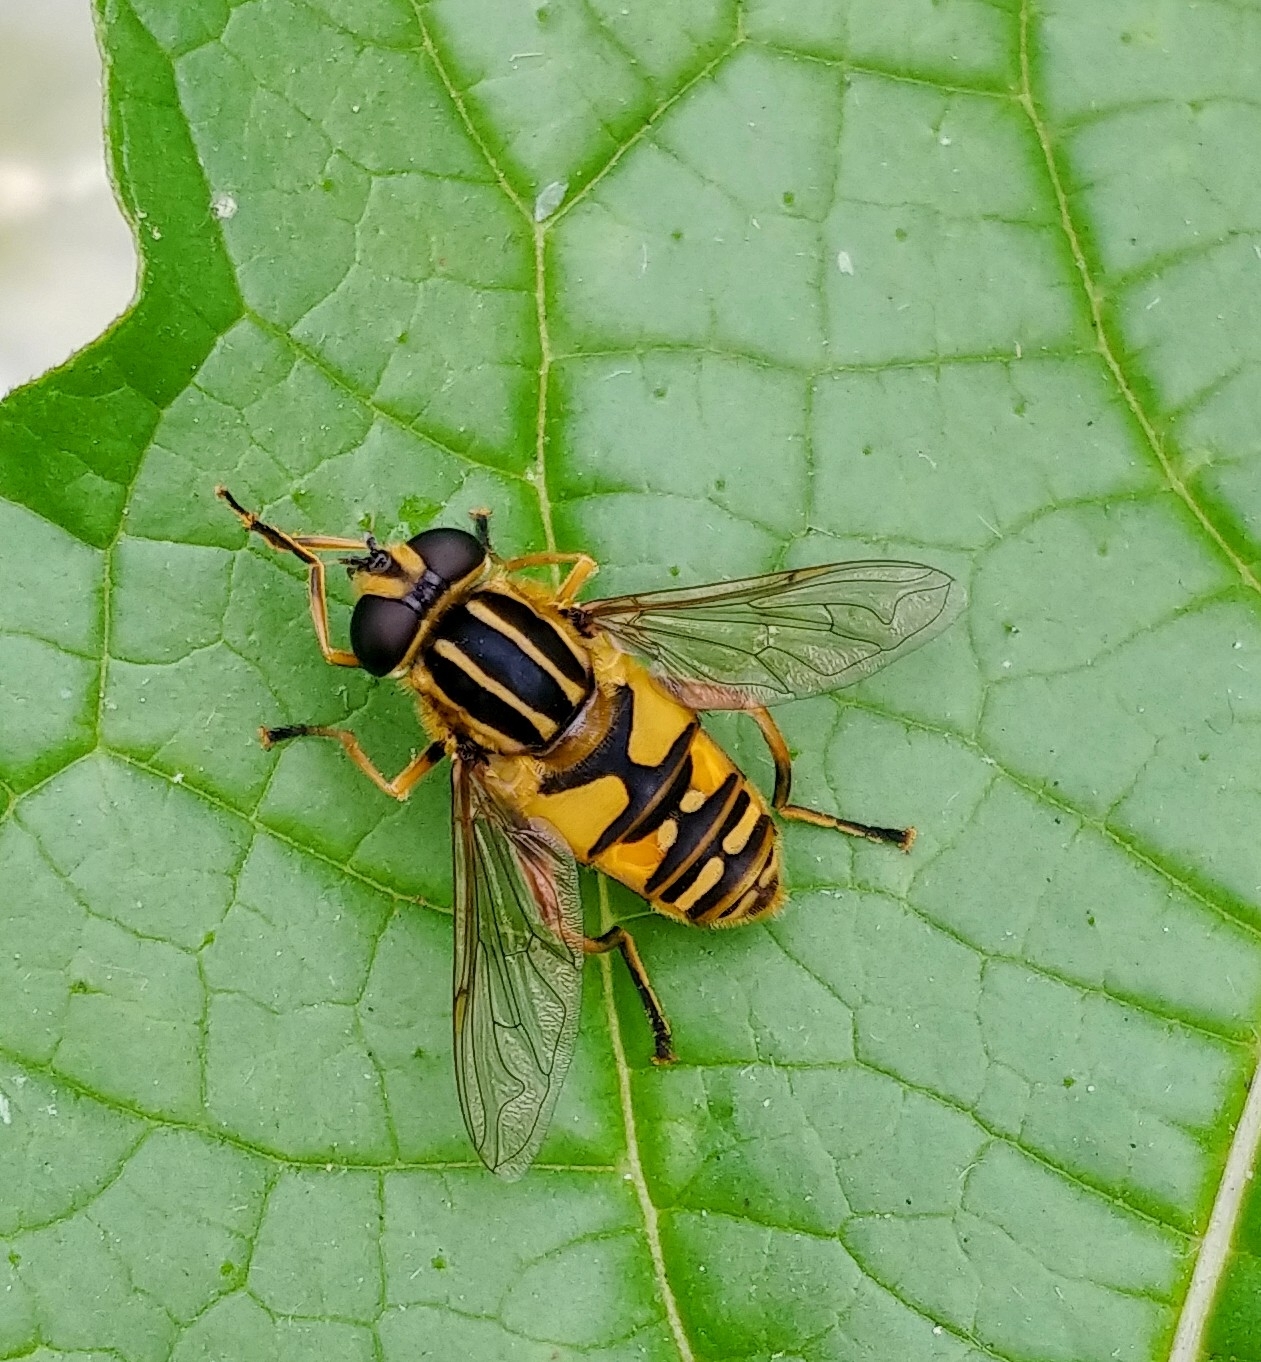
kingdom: Animalia
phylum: Arthropoda
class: Insecta
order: Diptera
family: Syrphidae
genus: Helophilus
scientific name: Helophilus pendulus
